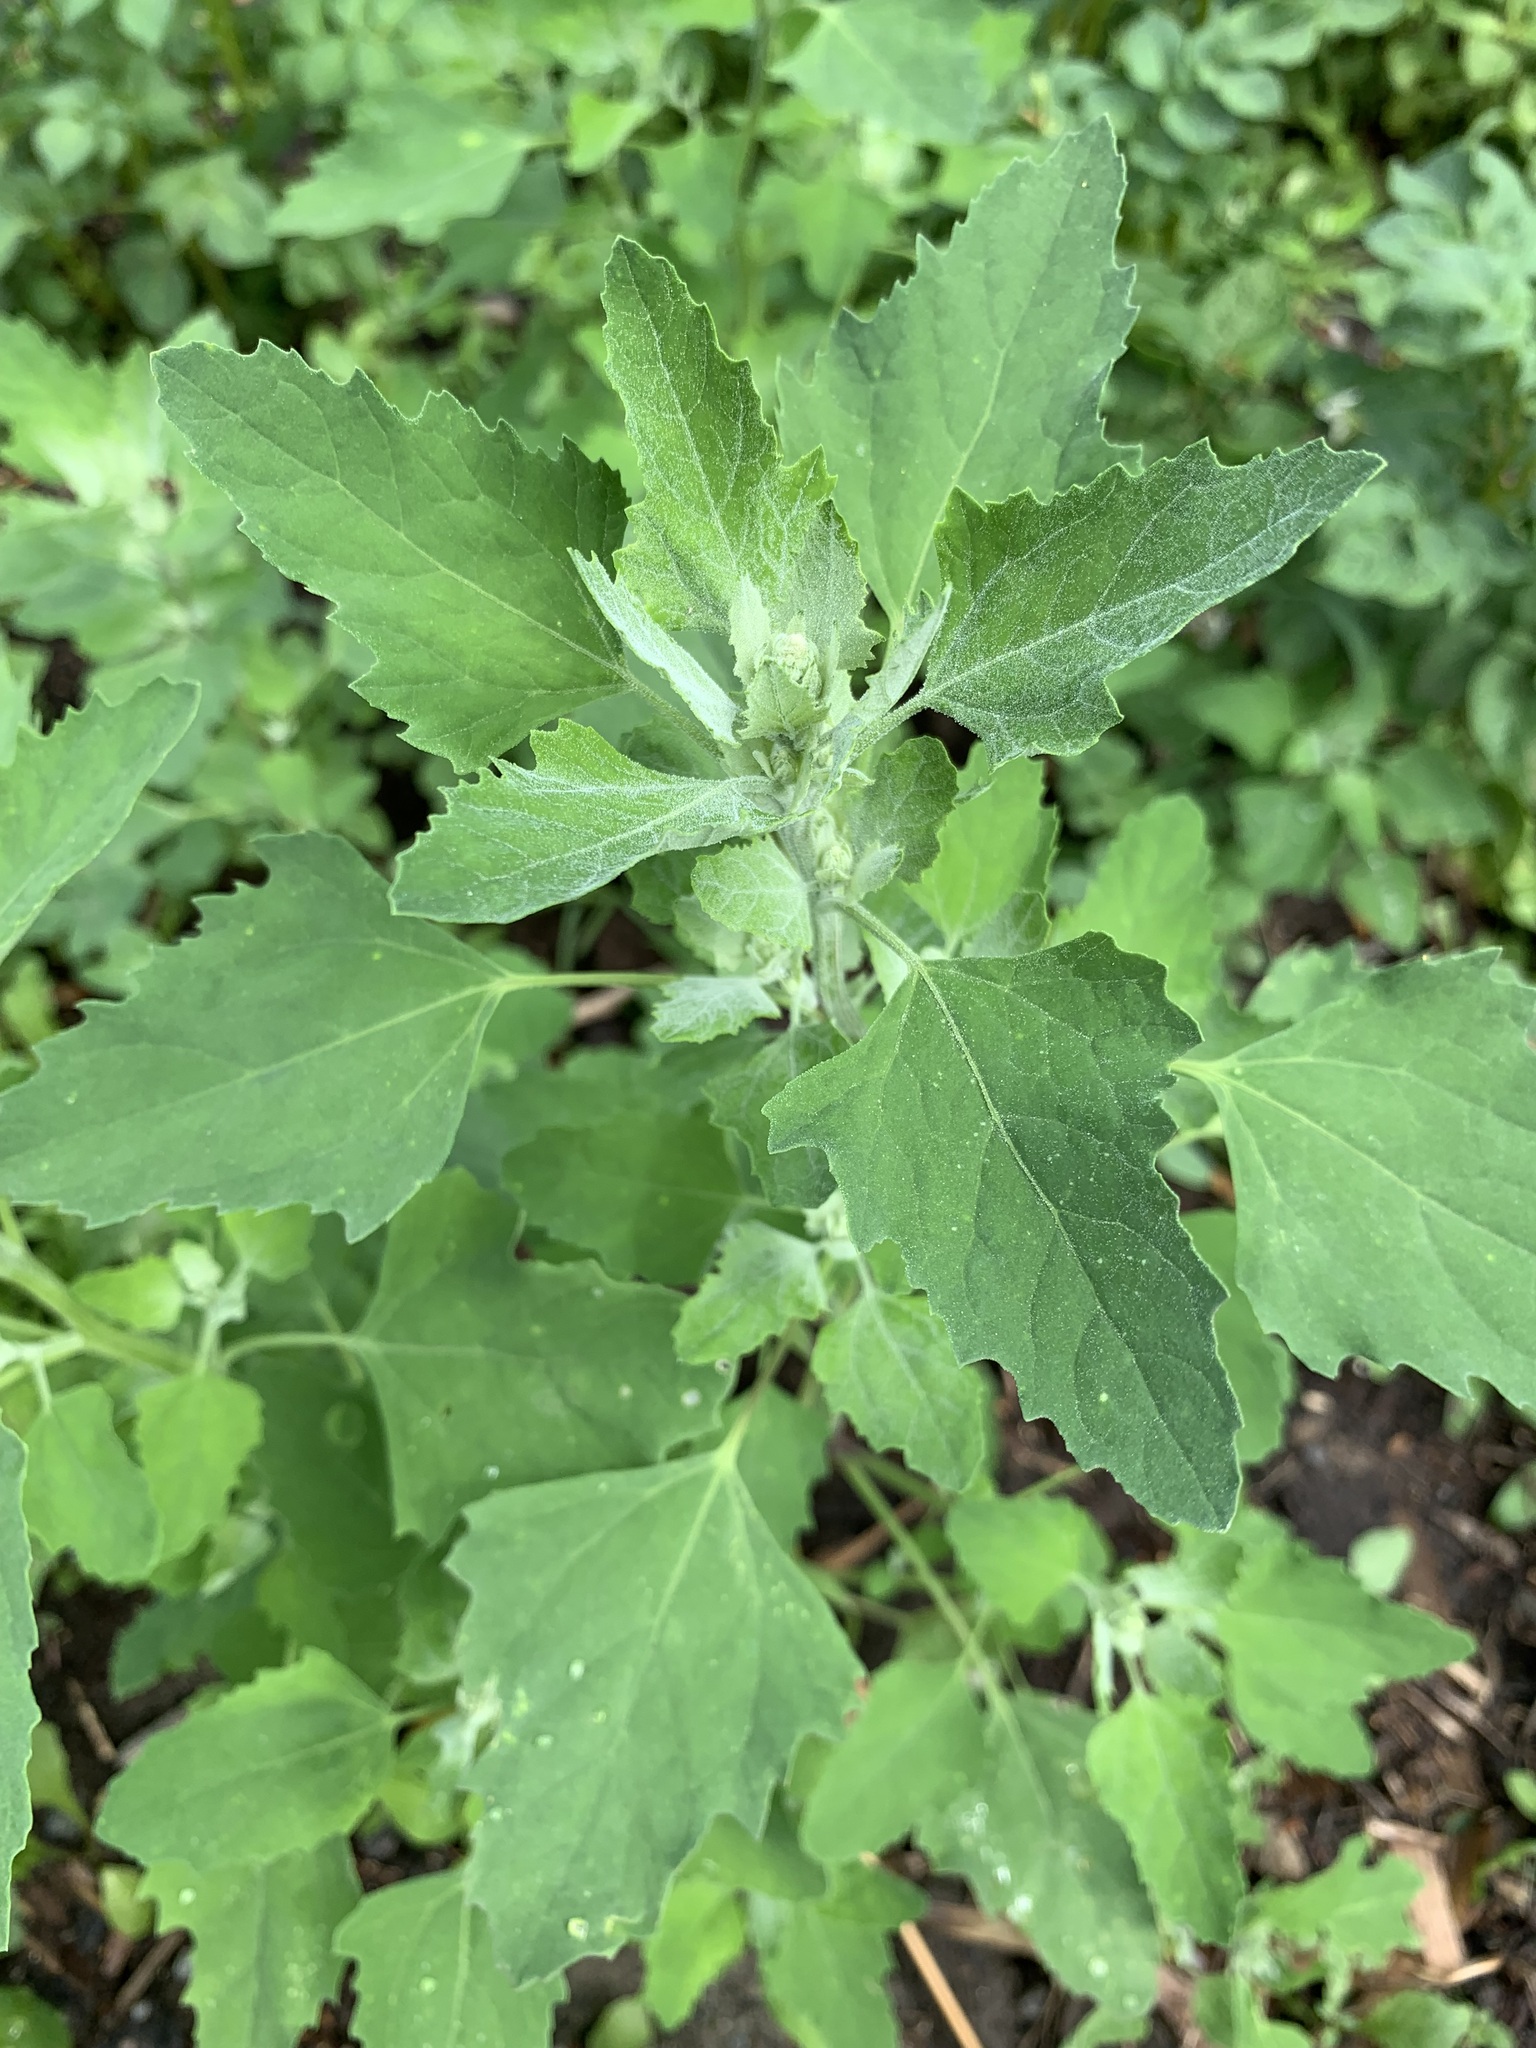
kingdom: Plantae
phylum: Tracheophyta
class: Magnoliopsida
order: Caryophyllales
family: Amaranthaceae
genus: Chenopodium
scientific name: Chenopodium album
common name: Fat-hen
